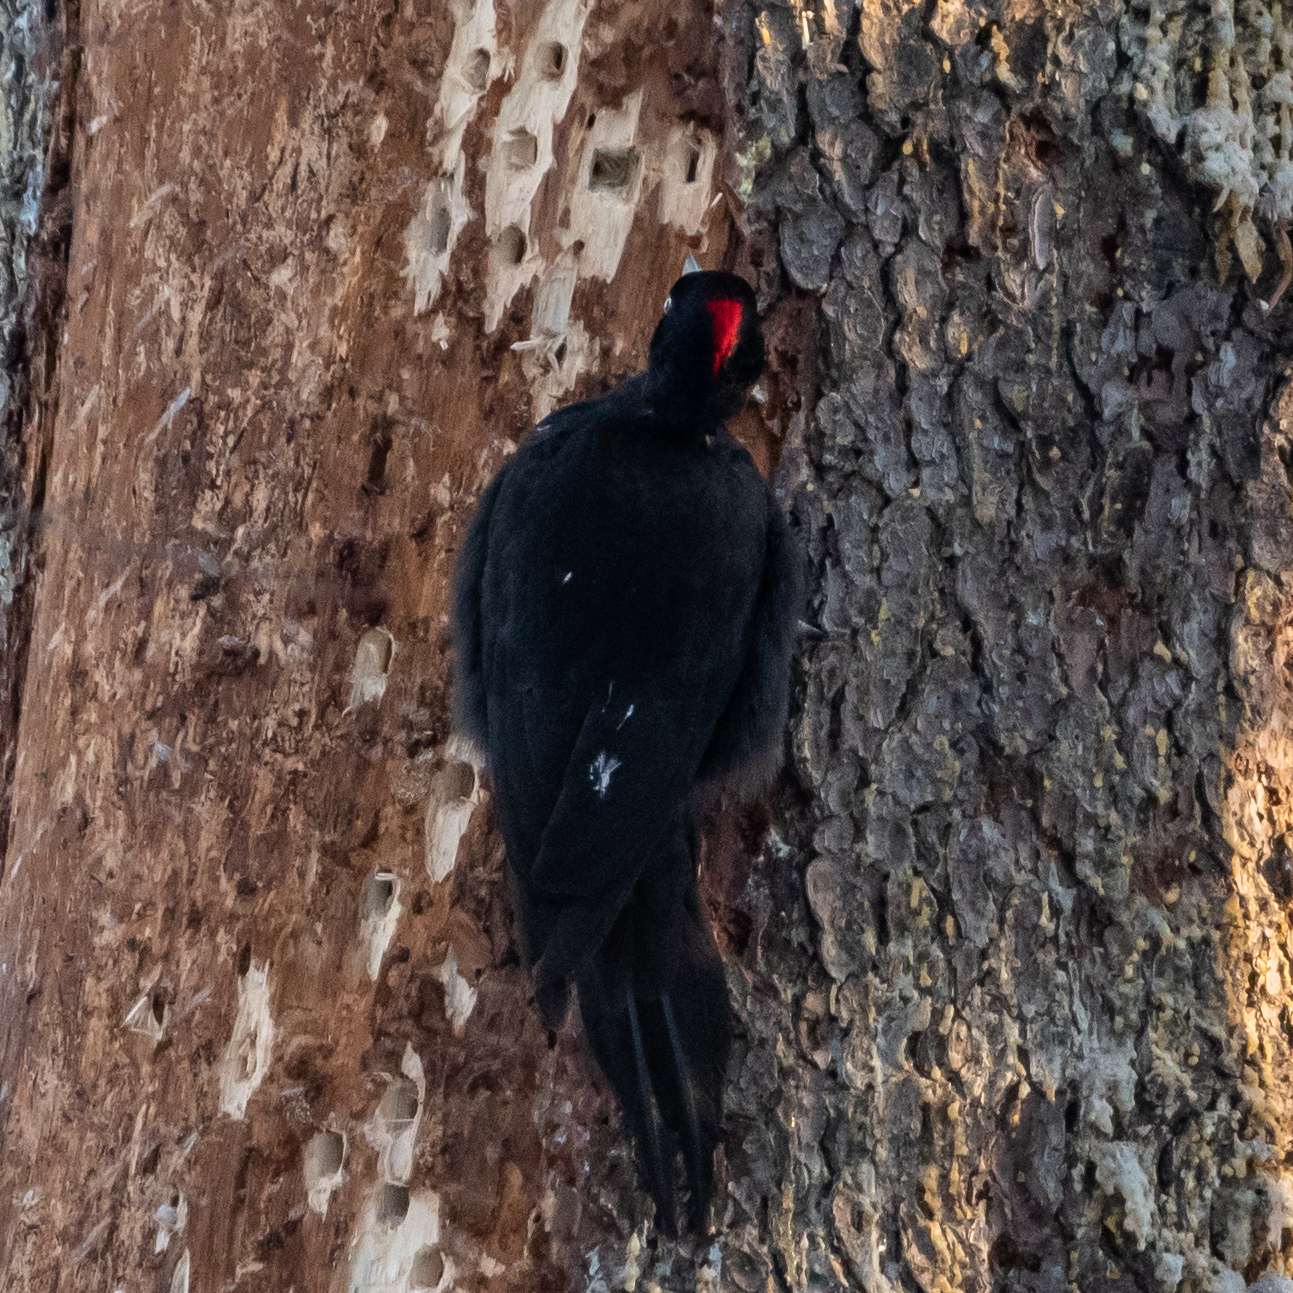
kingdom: Animalia
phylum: Chordata
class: Aves
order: Piciformes
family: Picidae
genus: Dryocopus
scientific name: Dryocopus martius
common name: Black woodpecker
